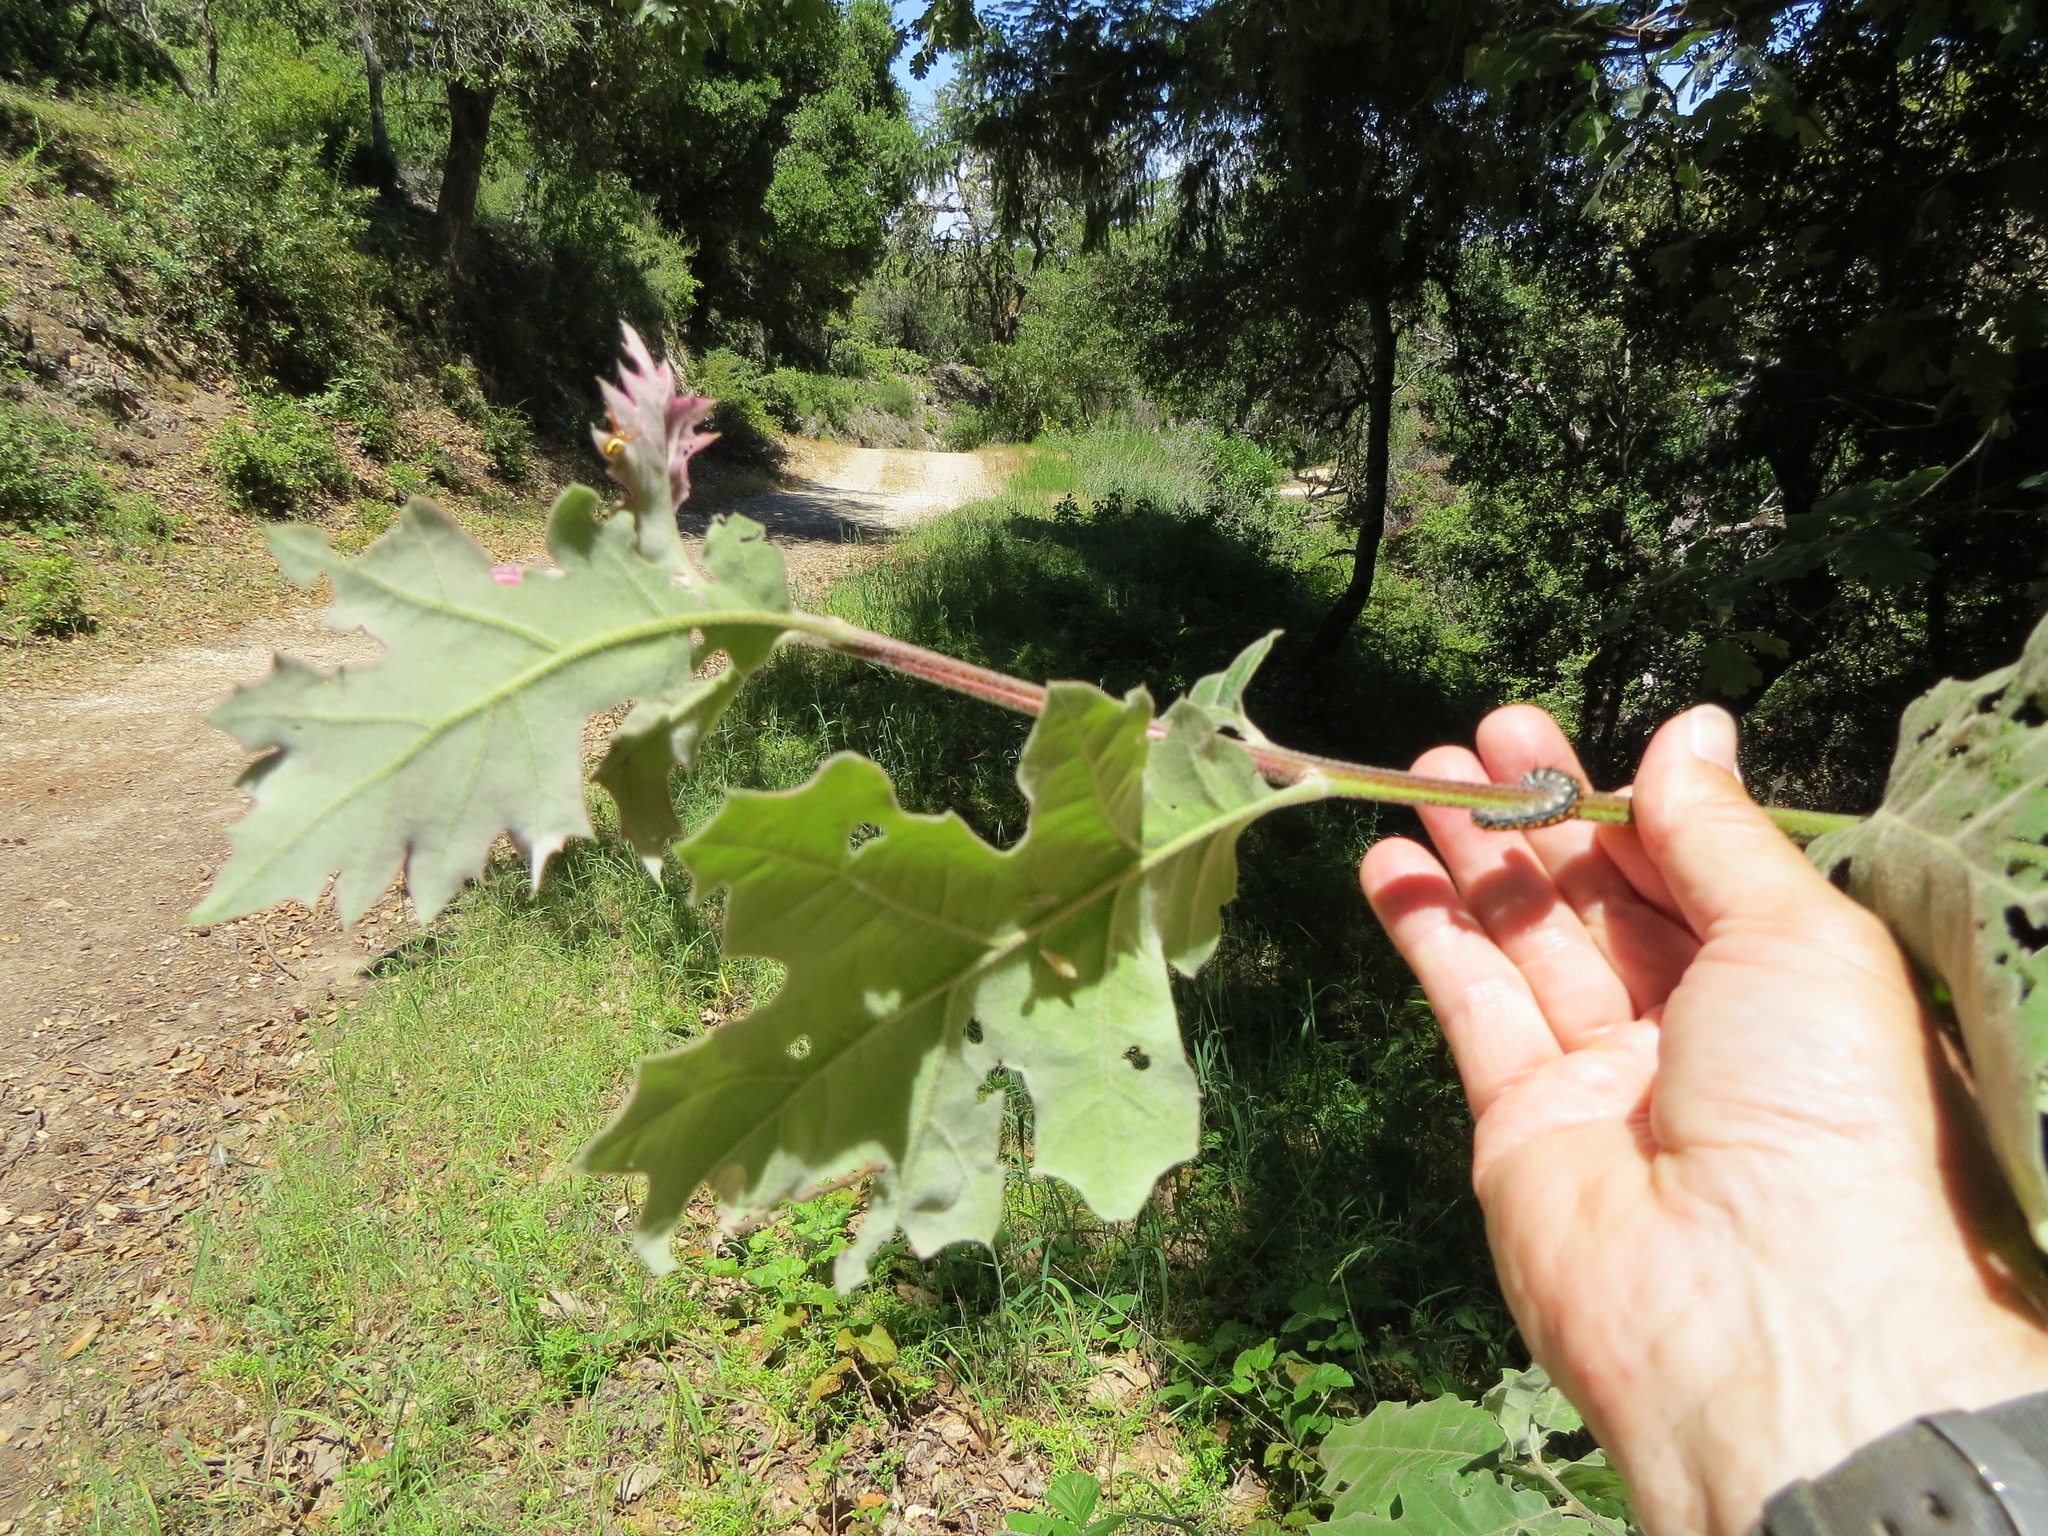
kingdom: Animalia
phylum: Arthropoda
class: Insecta
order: Lepidoptera
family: Lasiocampidae
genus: Malacosoma
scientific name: Malacosoma constricta
